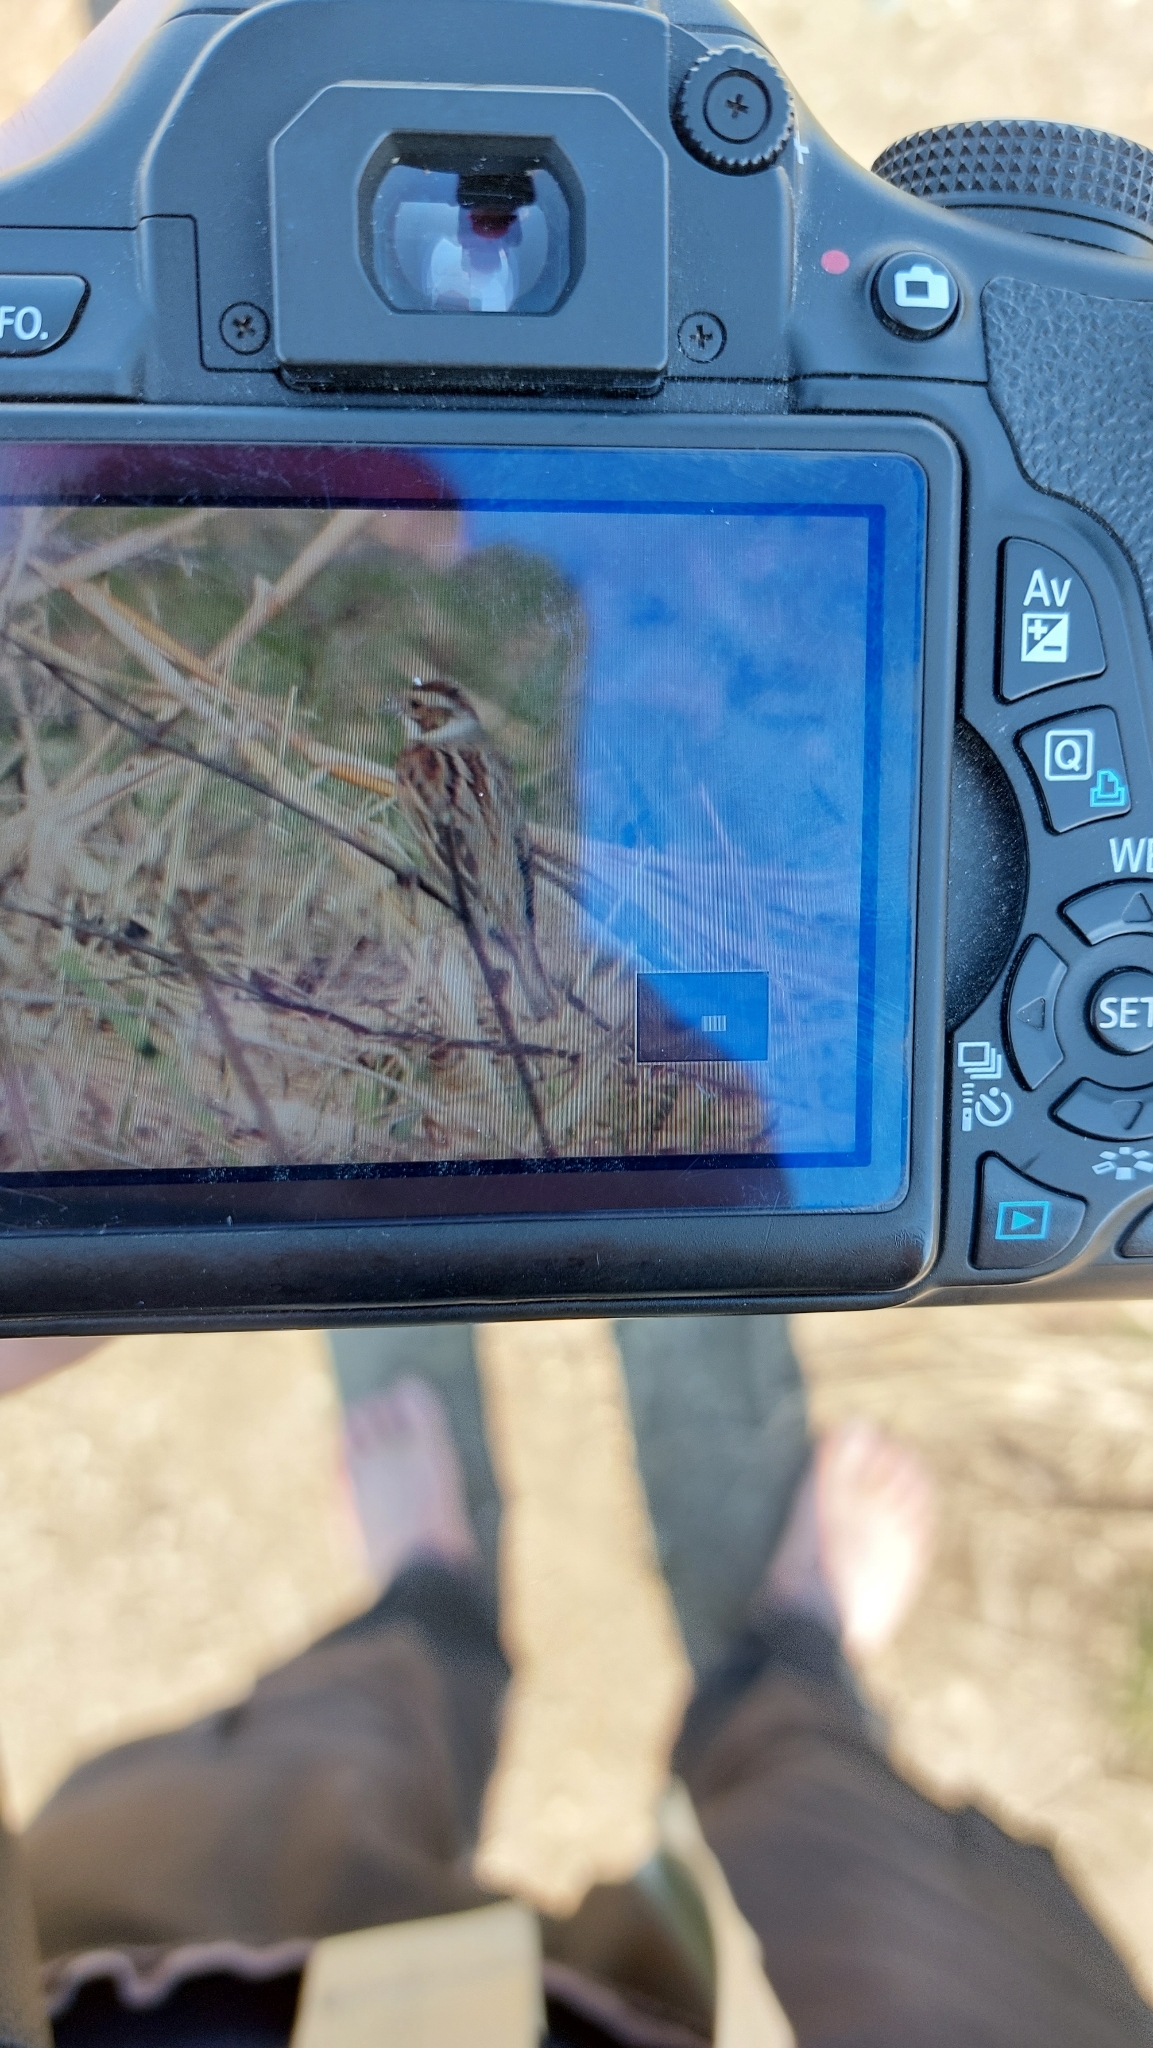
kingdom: Animalia
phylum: Chordata
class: Aves
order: Passeriformes
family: Emberizidae
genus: Emberiza
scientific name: Emberiza schoeniclus
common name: Reed bunting
